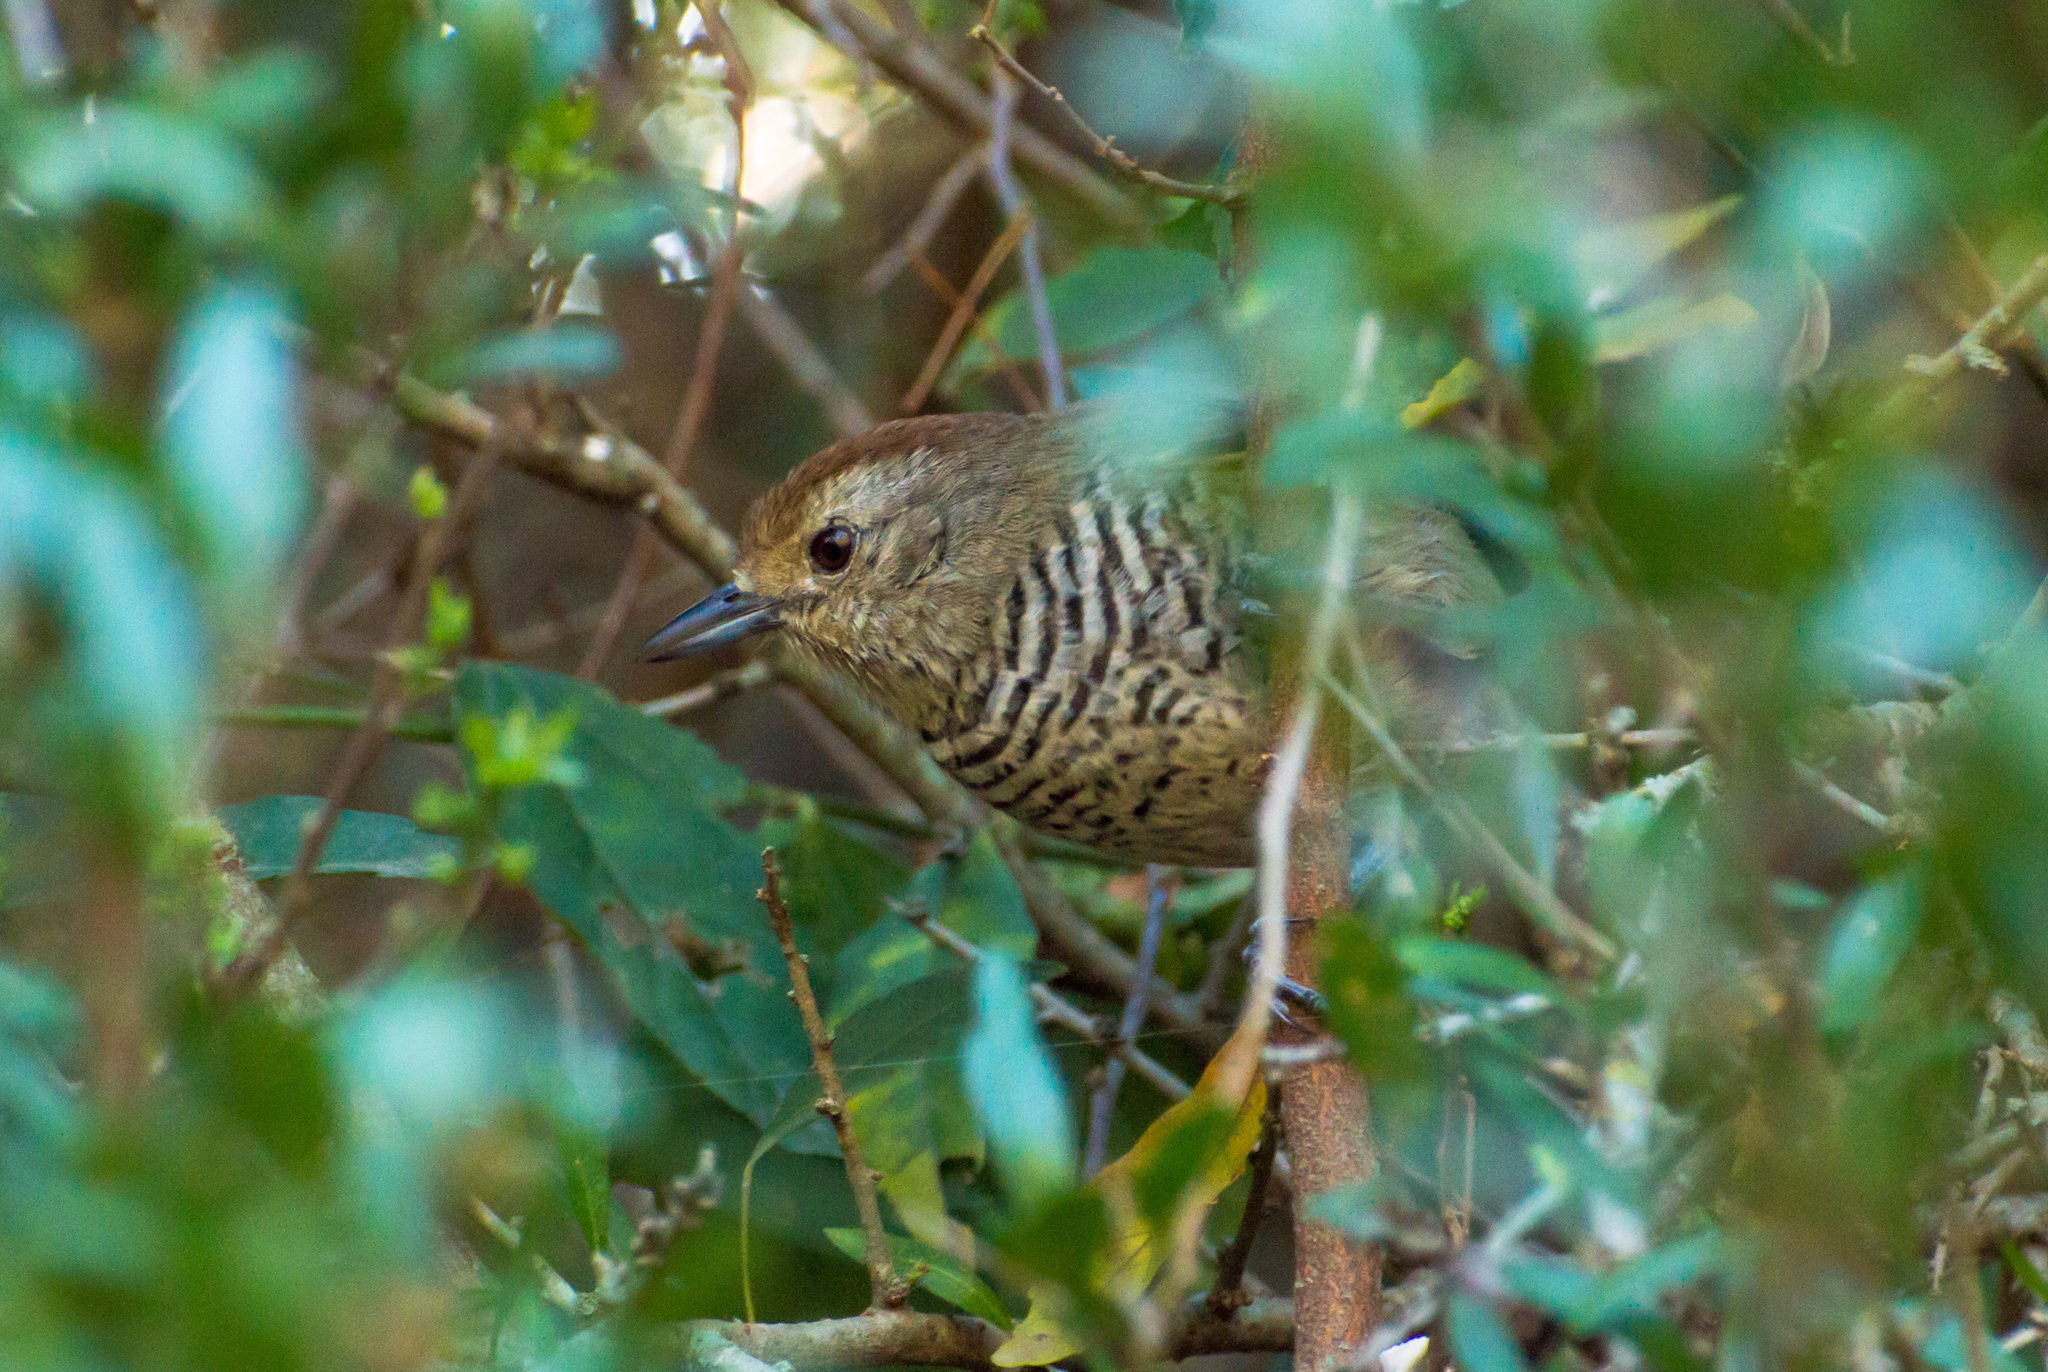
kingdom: Animalia
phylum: Chordata
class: Aves
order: Passeriformes
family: Thamnophilidae
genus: Thamnophilus
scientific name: Thamnophilus ruficapillus
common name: Rufous-capped antshrike
